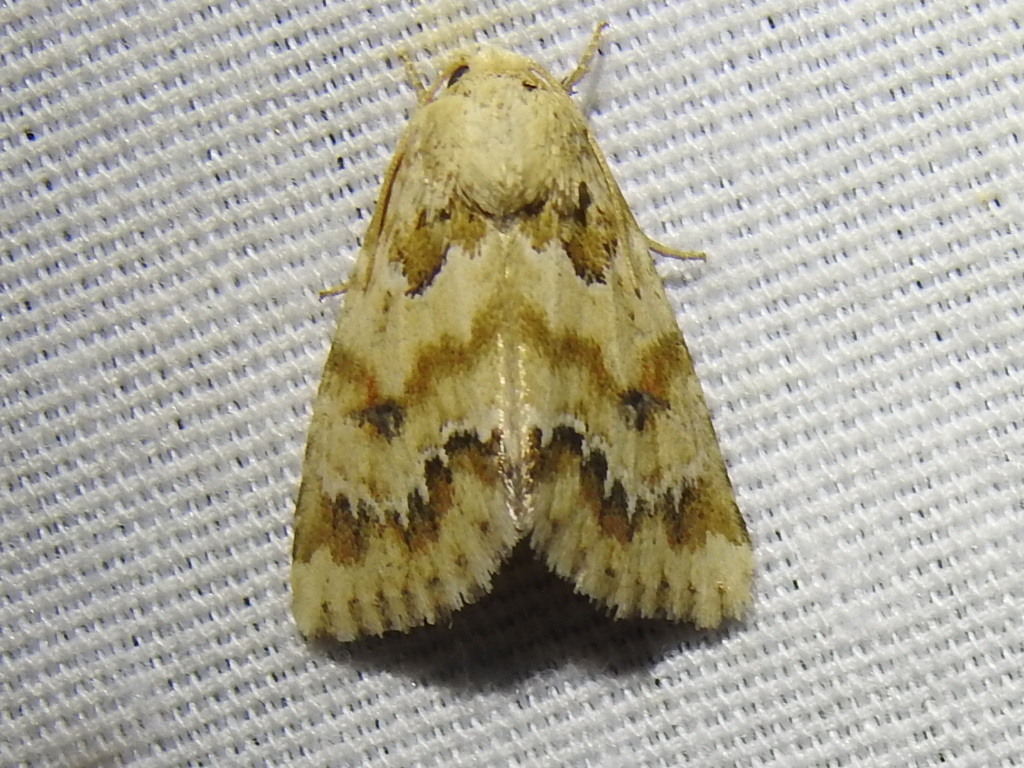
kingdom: Animalia
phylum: Arthropoda
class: Insecta
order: Lepidoptera
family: Noctuidae
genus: Schinia
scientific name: Schinia nundina
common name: Goldenrod flower moth
